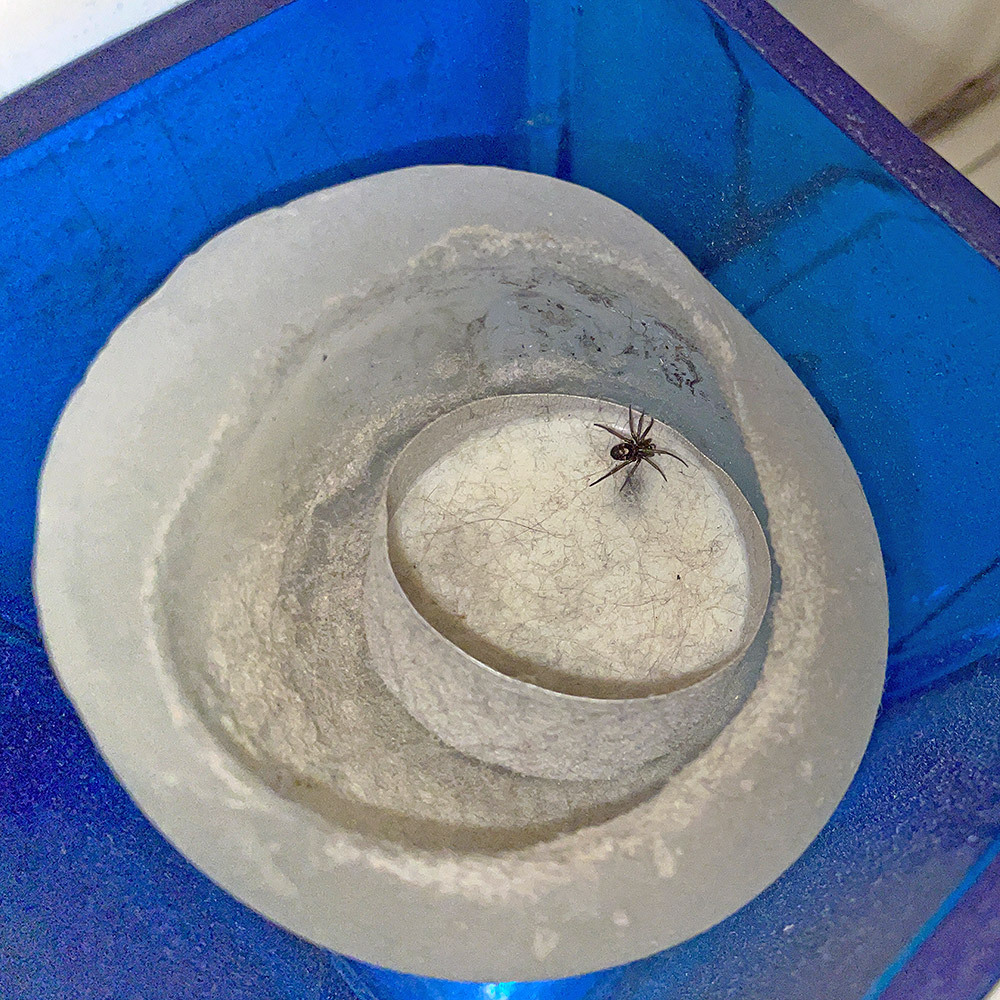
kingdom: Animalia
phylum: Arthropoda
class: Arachnida
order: Araneae
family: Theridiidae
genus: Steatoda
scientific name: Steatoda grossa
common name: False black widow
